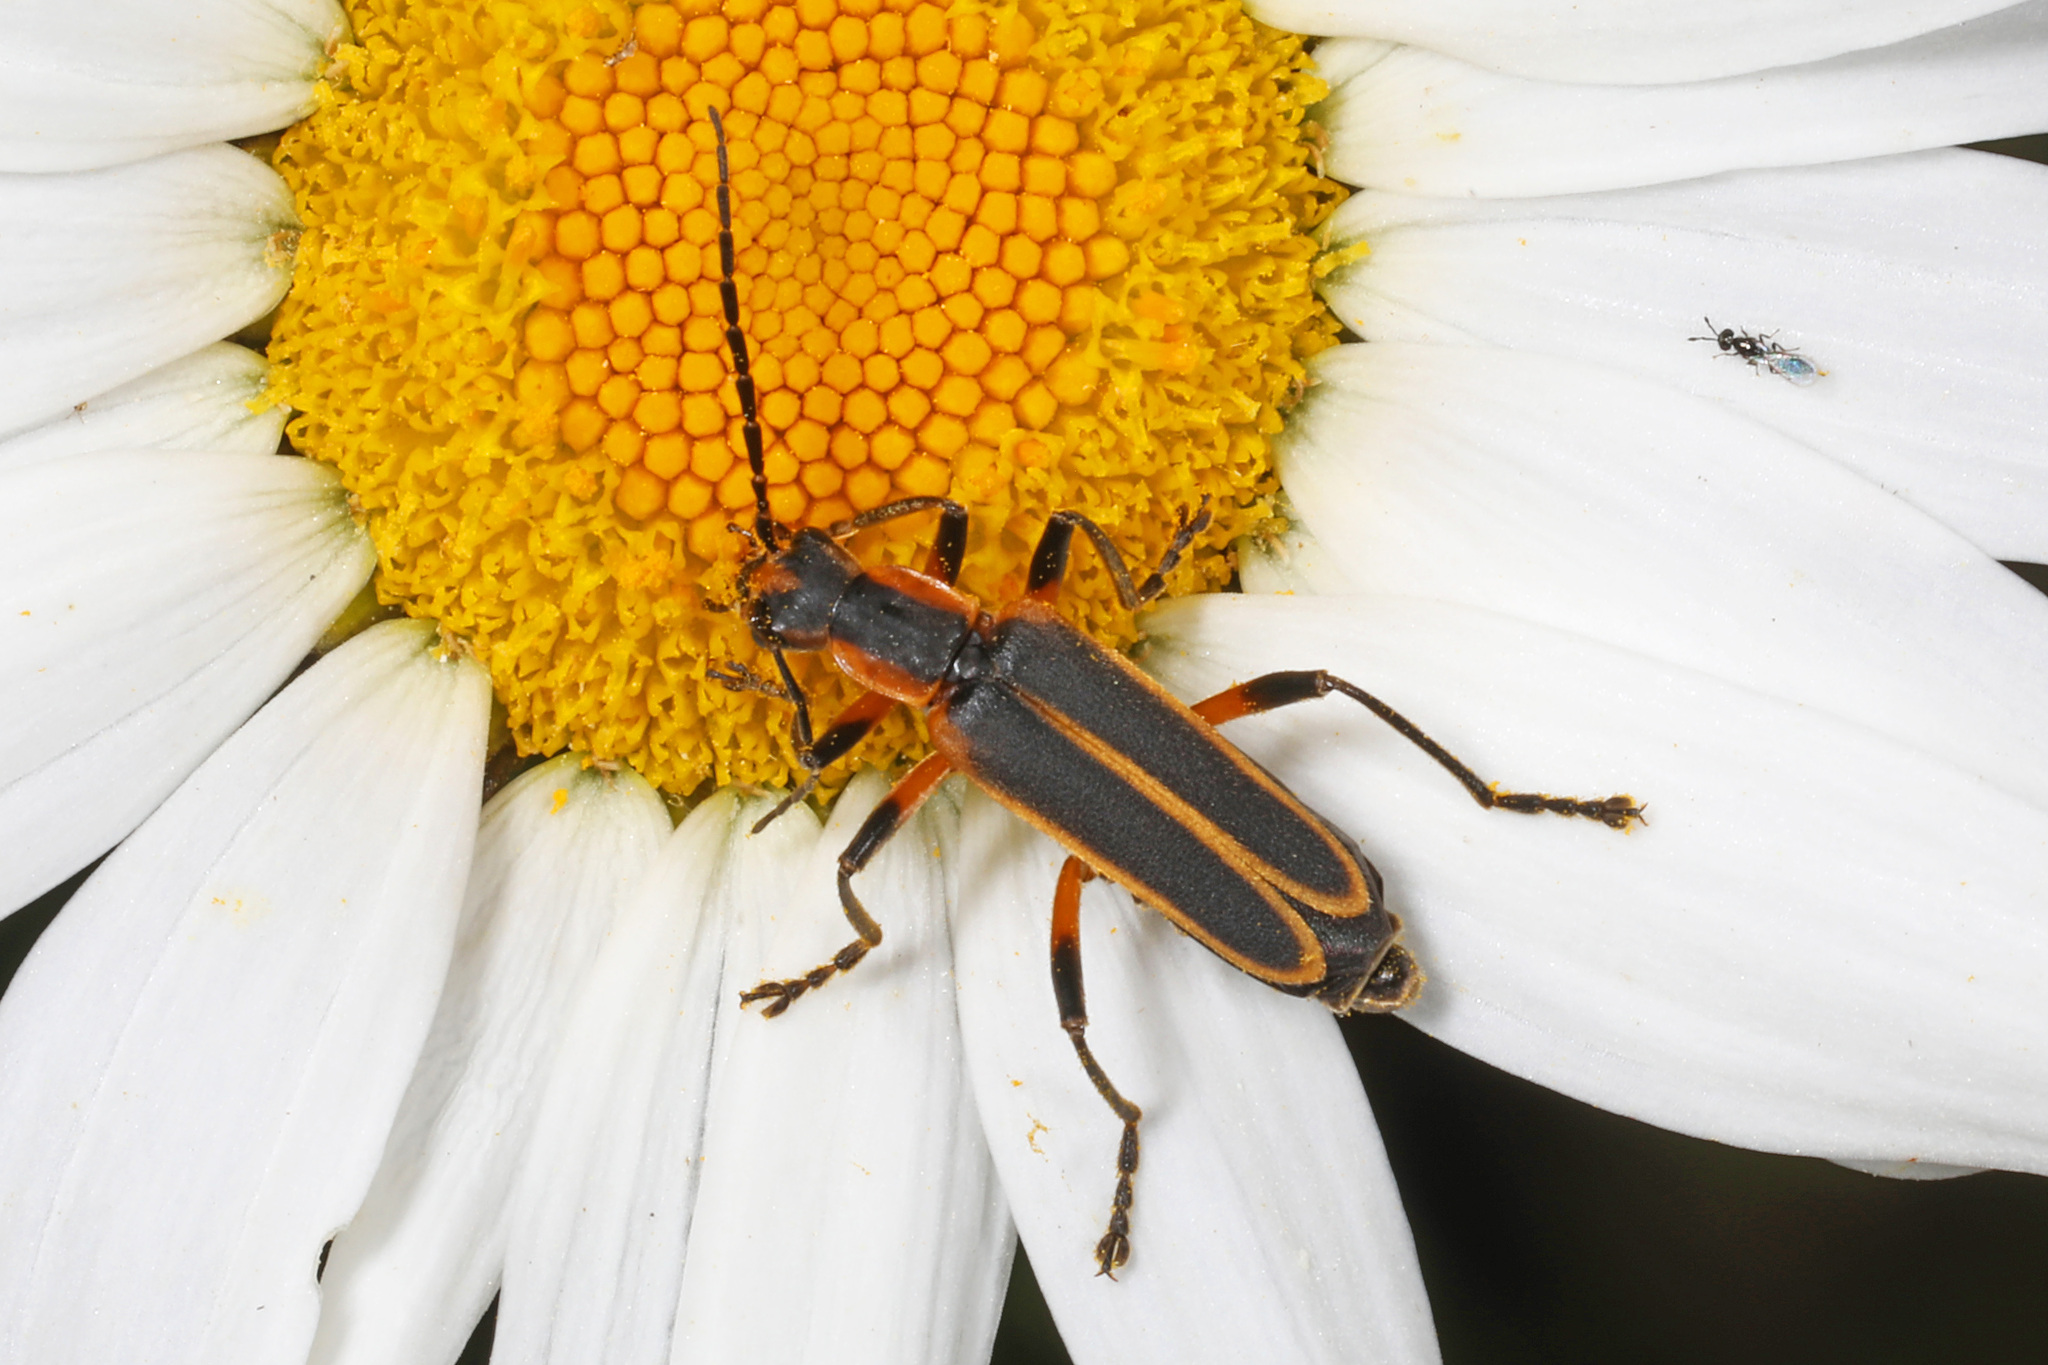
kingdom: Animalia
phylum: Arthropoda
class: Insecta
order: Coleoptera
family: Cantharidae
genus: Chauliognathus
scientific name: Chauliognathus marginatus
